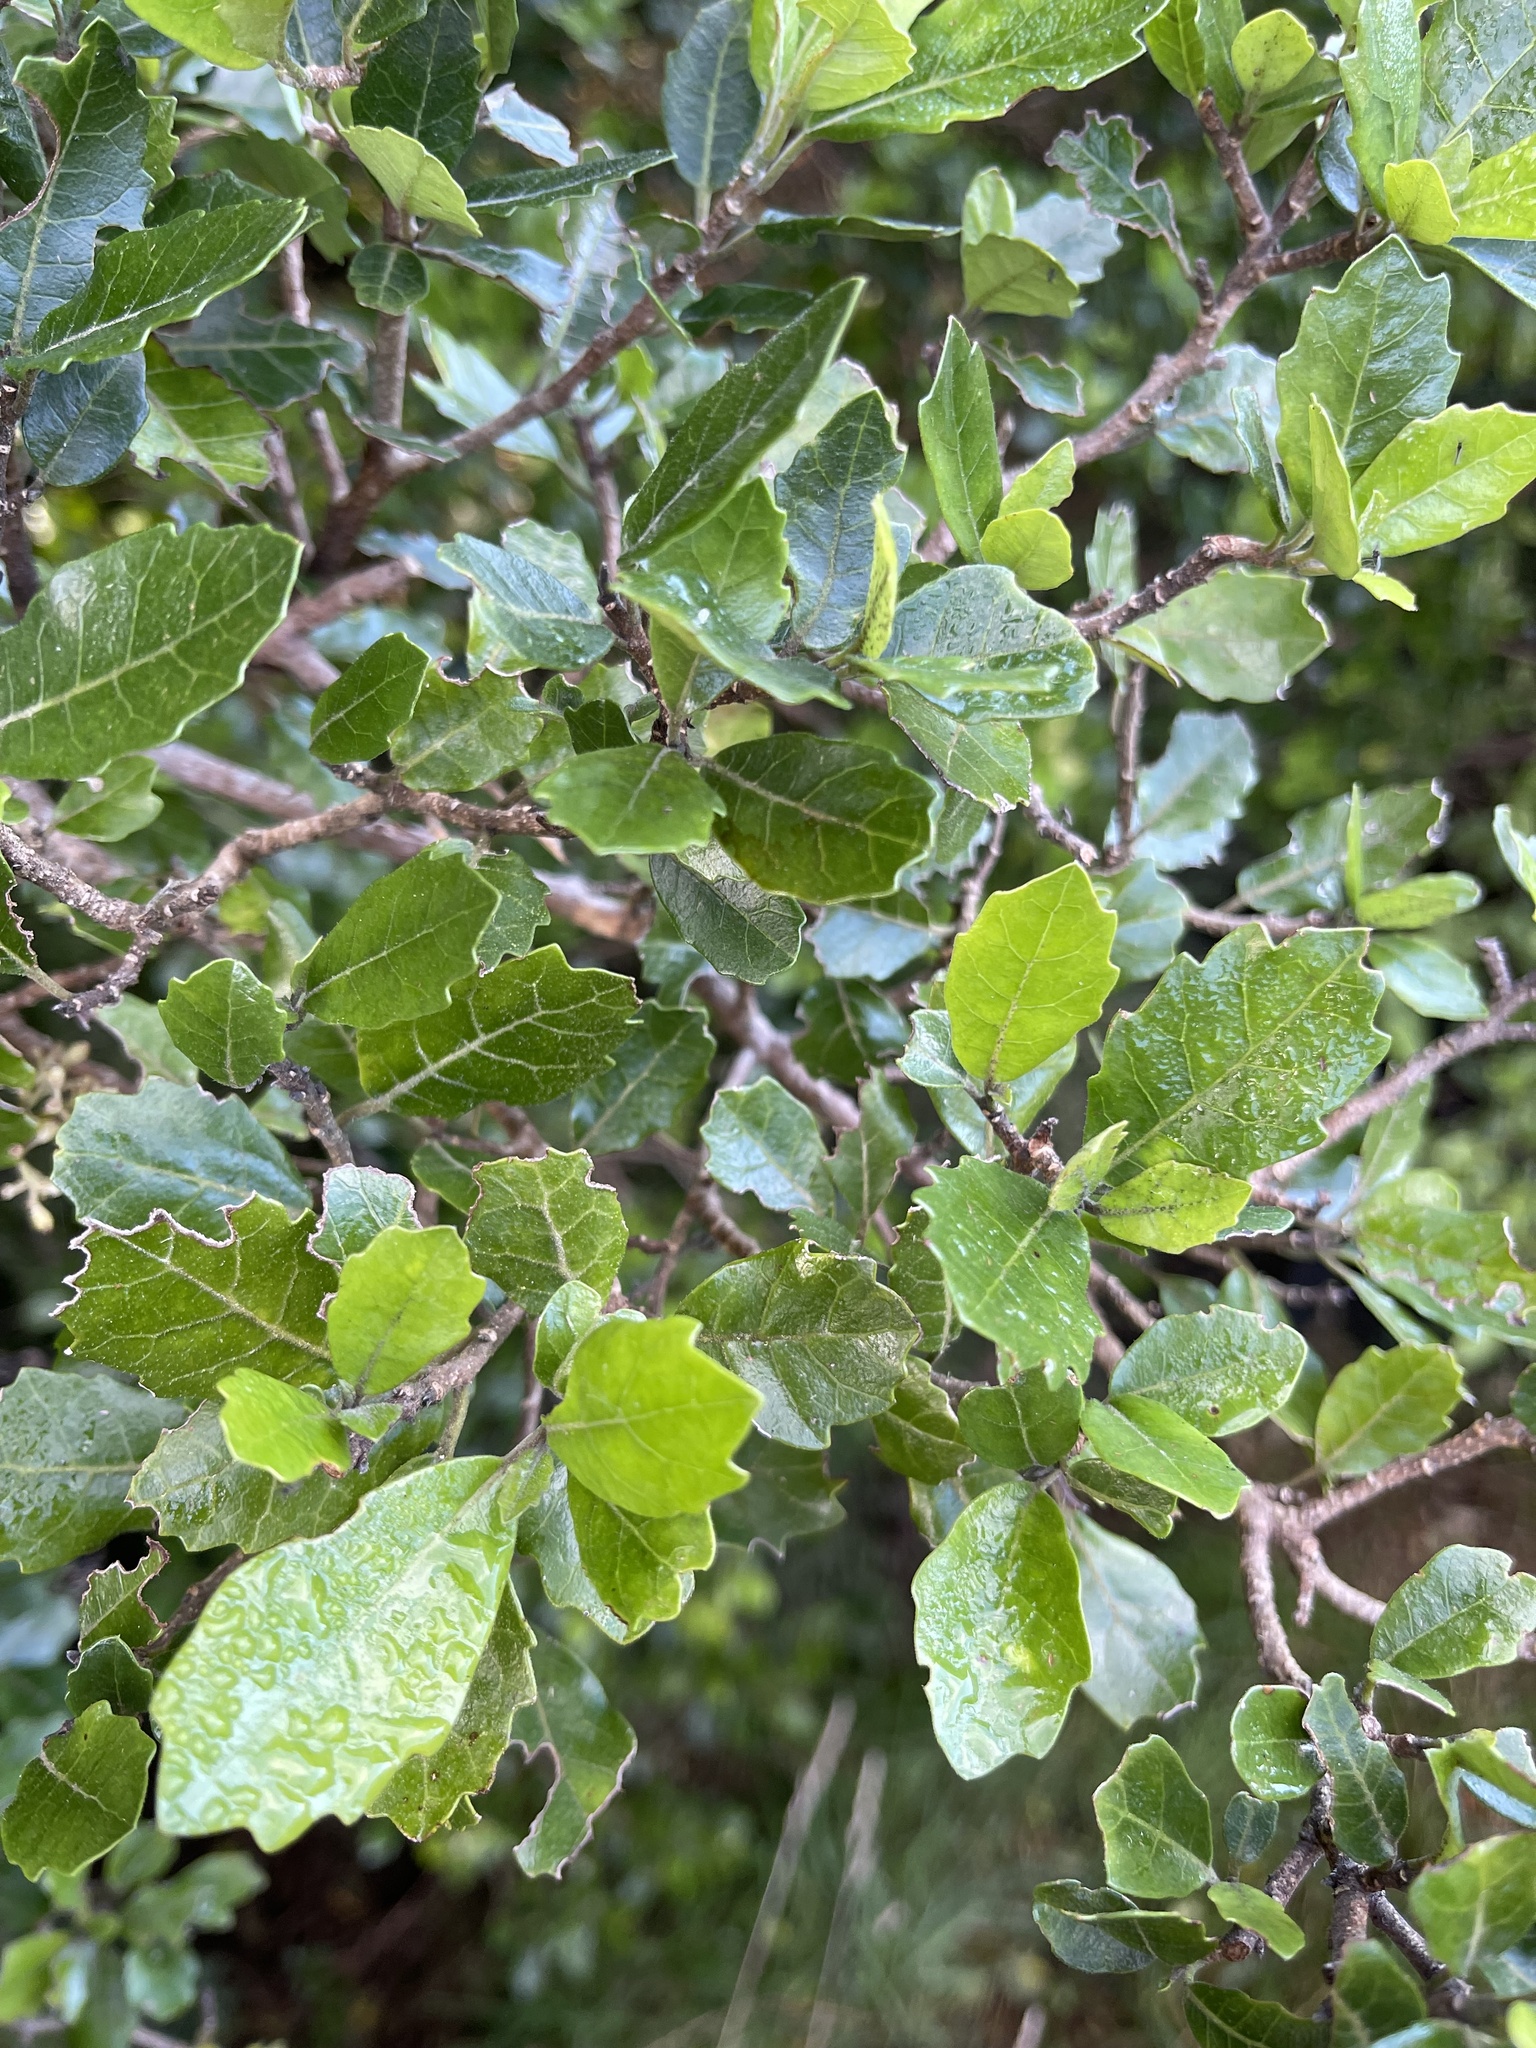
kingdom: Plantae
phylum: Tracheophyta
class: Magnoliopsida
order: Apiales
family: Pennantiaceae
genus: Pennantia
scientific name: Pennantia corymbosa
